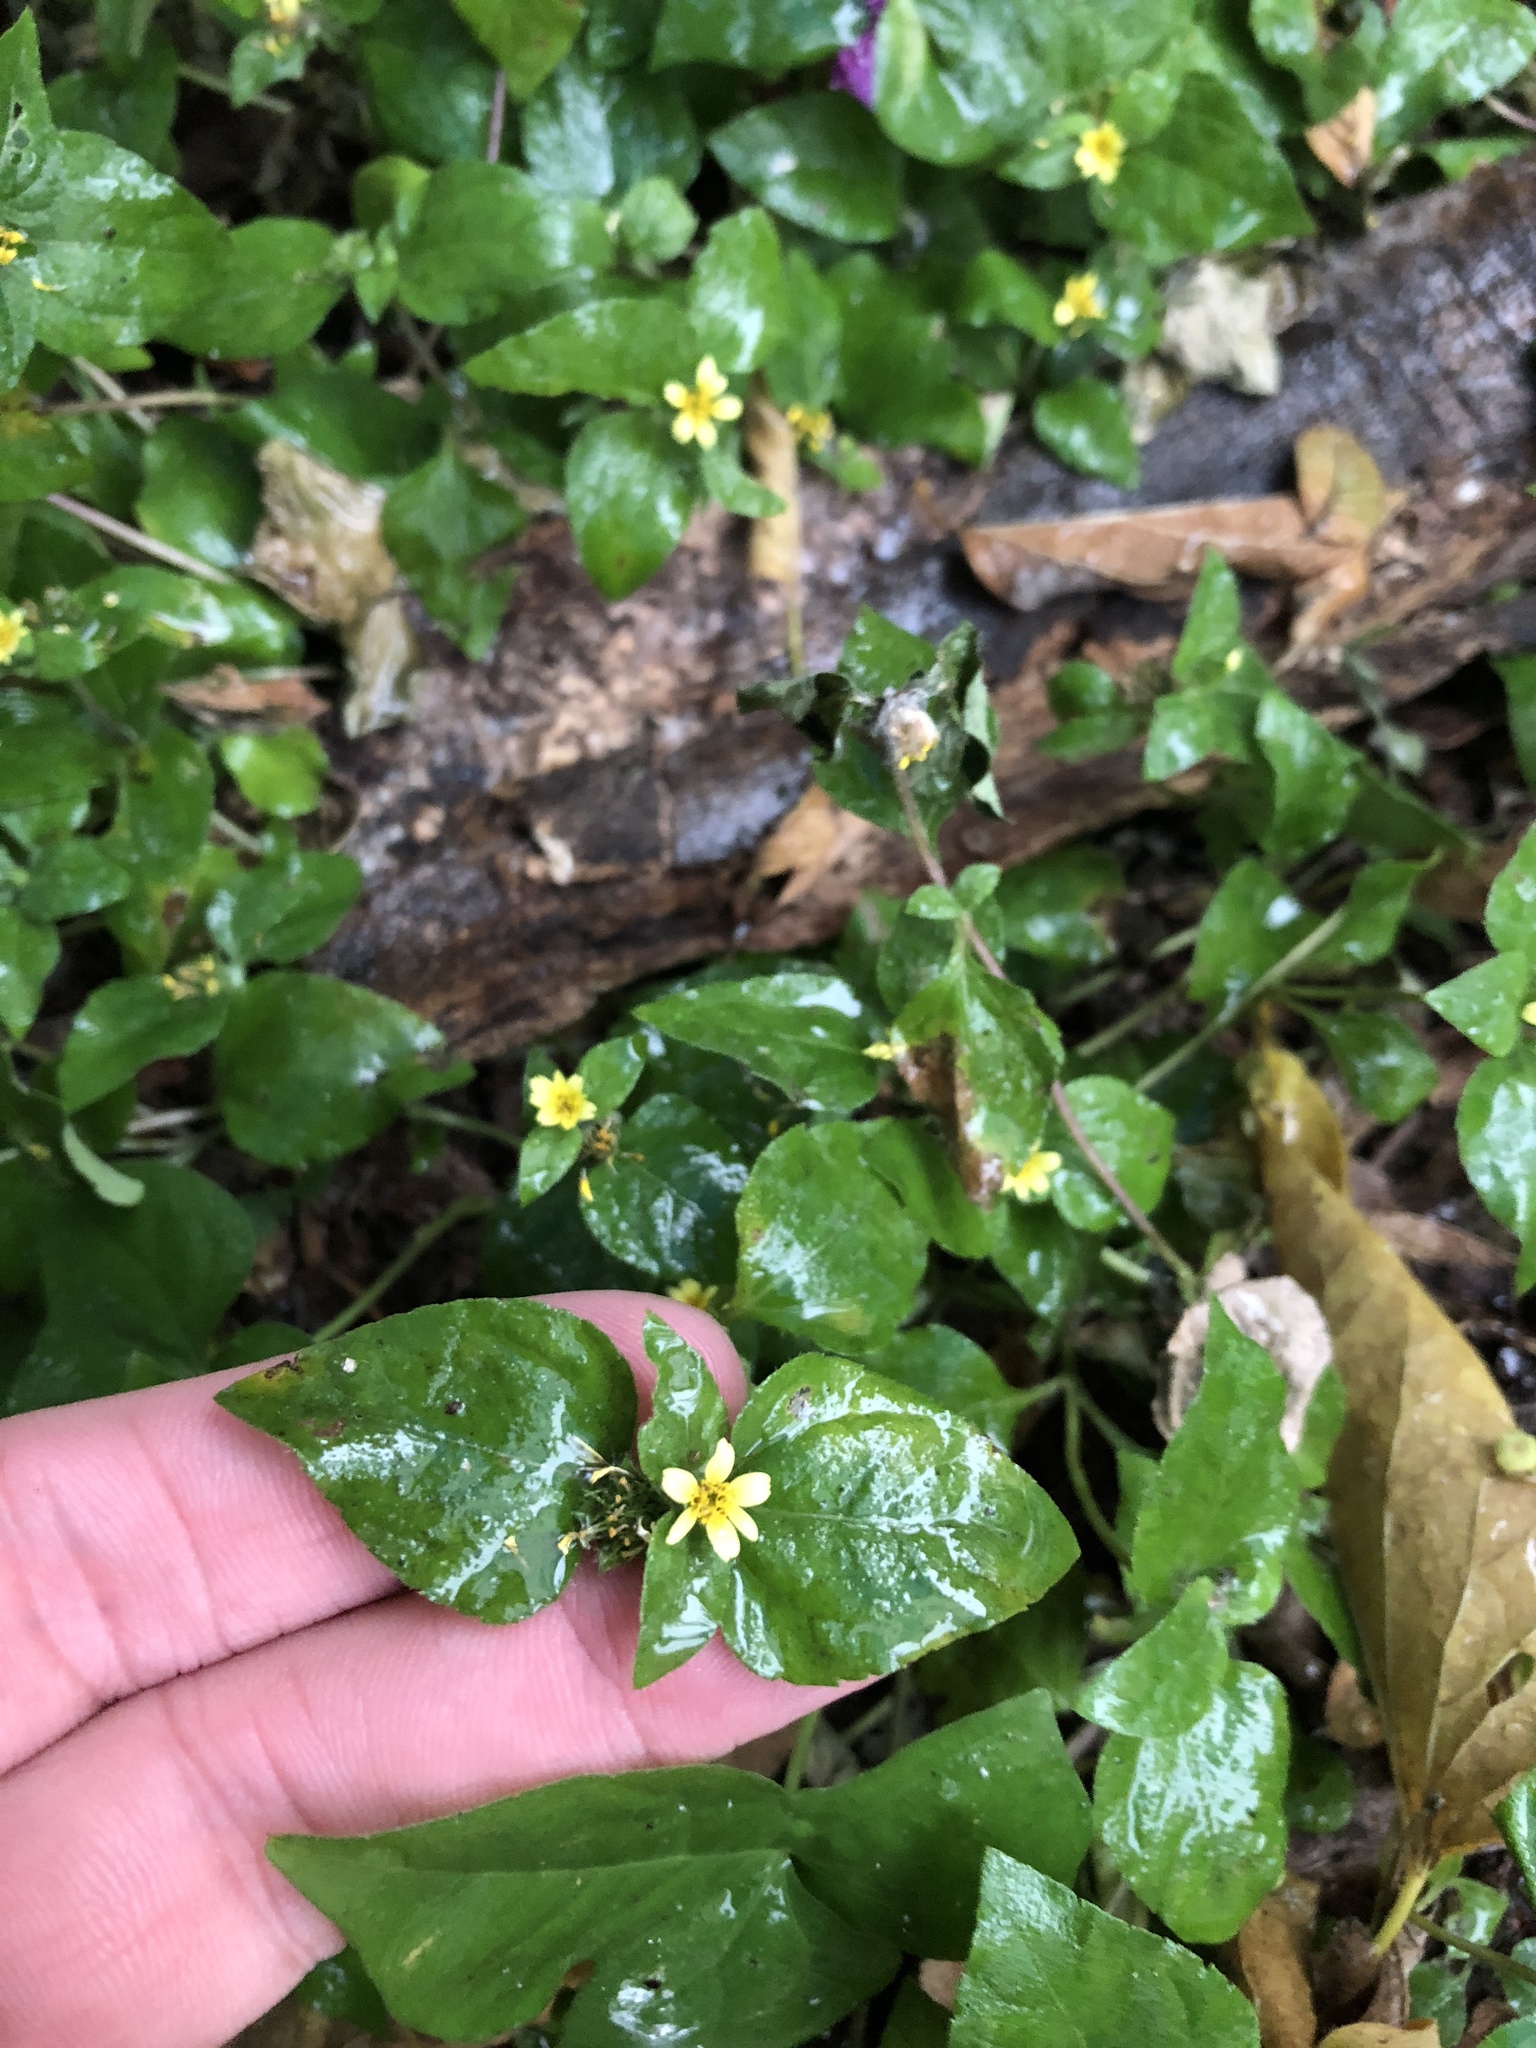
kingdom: Plantae
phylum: Tracheophyta
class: Magnoliopsida
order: Asterales
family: Asteraceae
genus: Calyptocarpus
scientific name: Calyptocarpus vialis
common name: Straggler daisy
